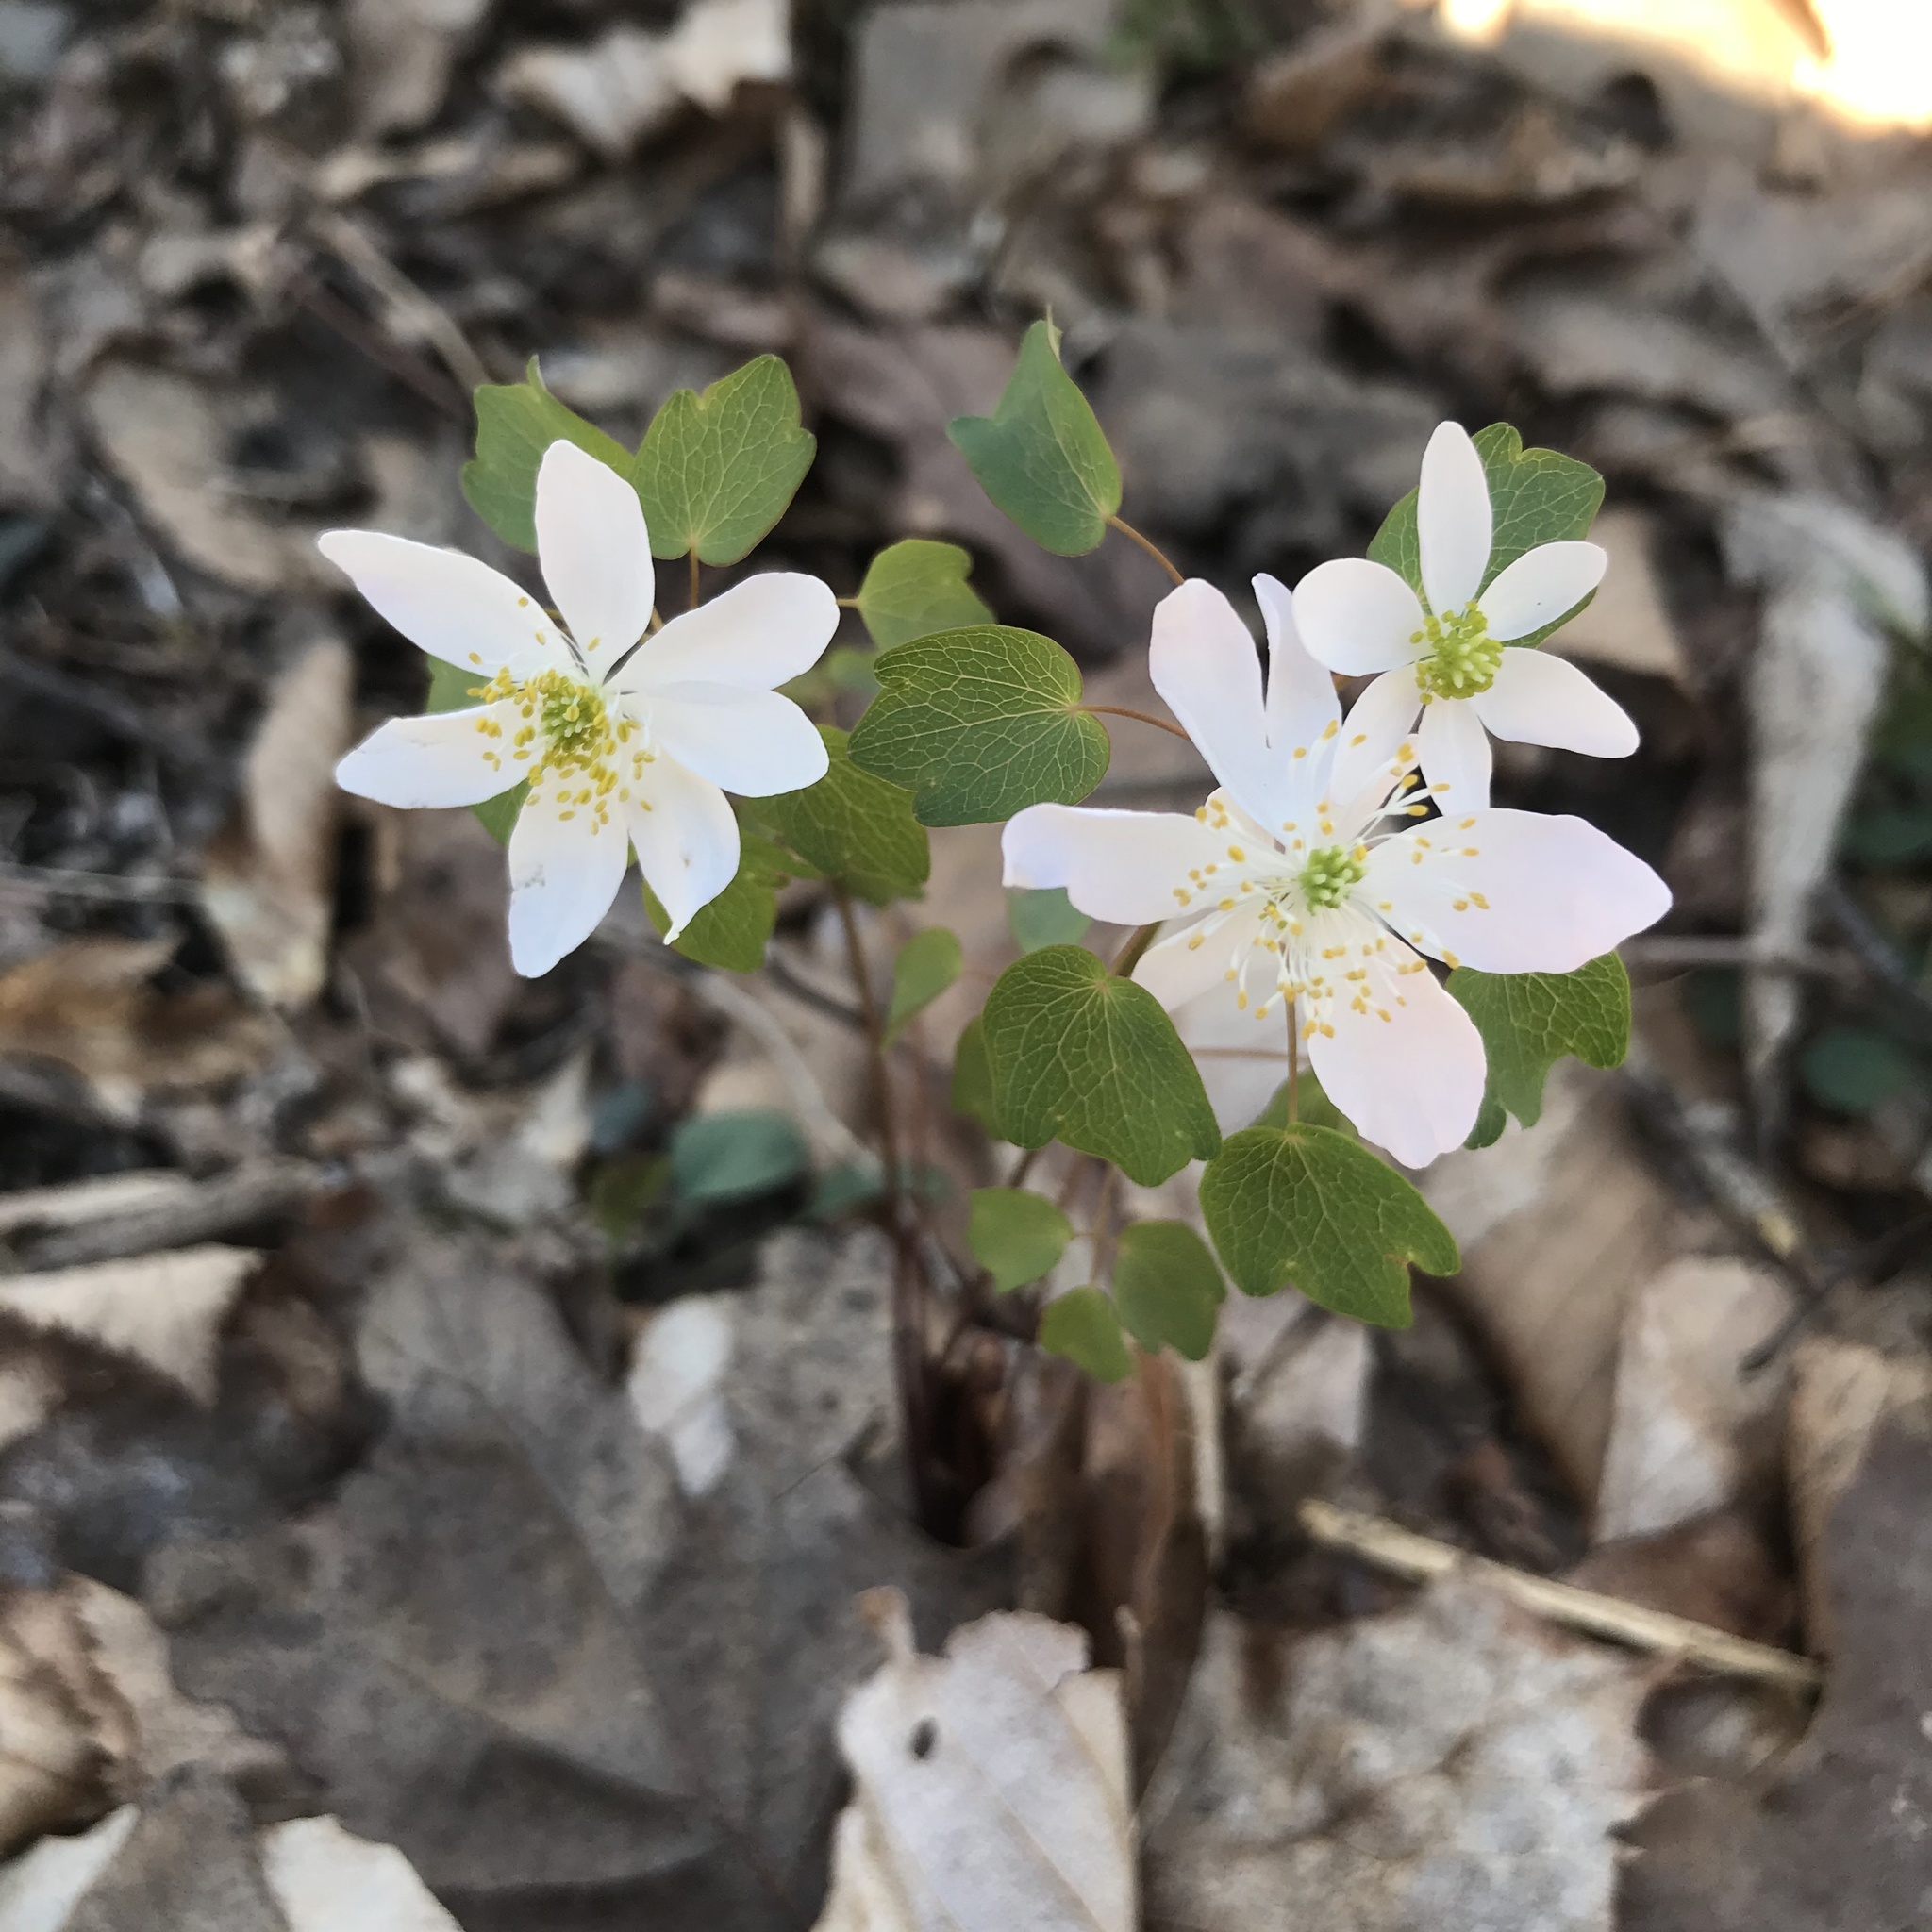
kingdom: Plantae
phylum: Tracheophyta
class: Magnoliopsida
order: Ranunculales
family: Ranunculaceae
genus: Thalictrum
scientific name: Thalictrum thalictroides
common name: Rue-anemone
